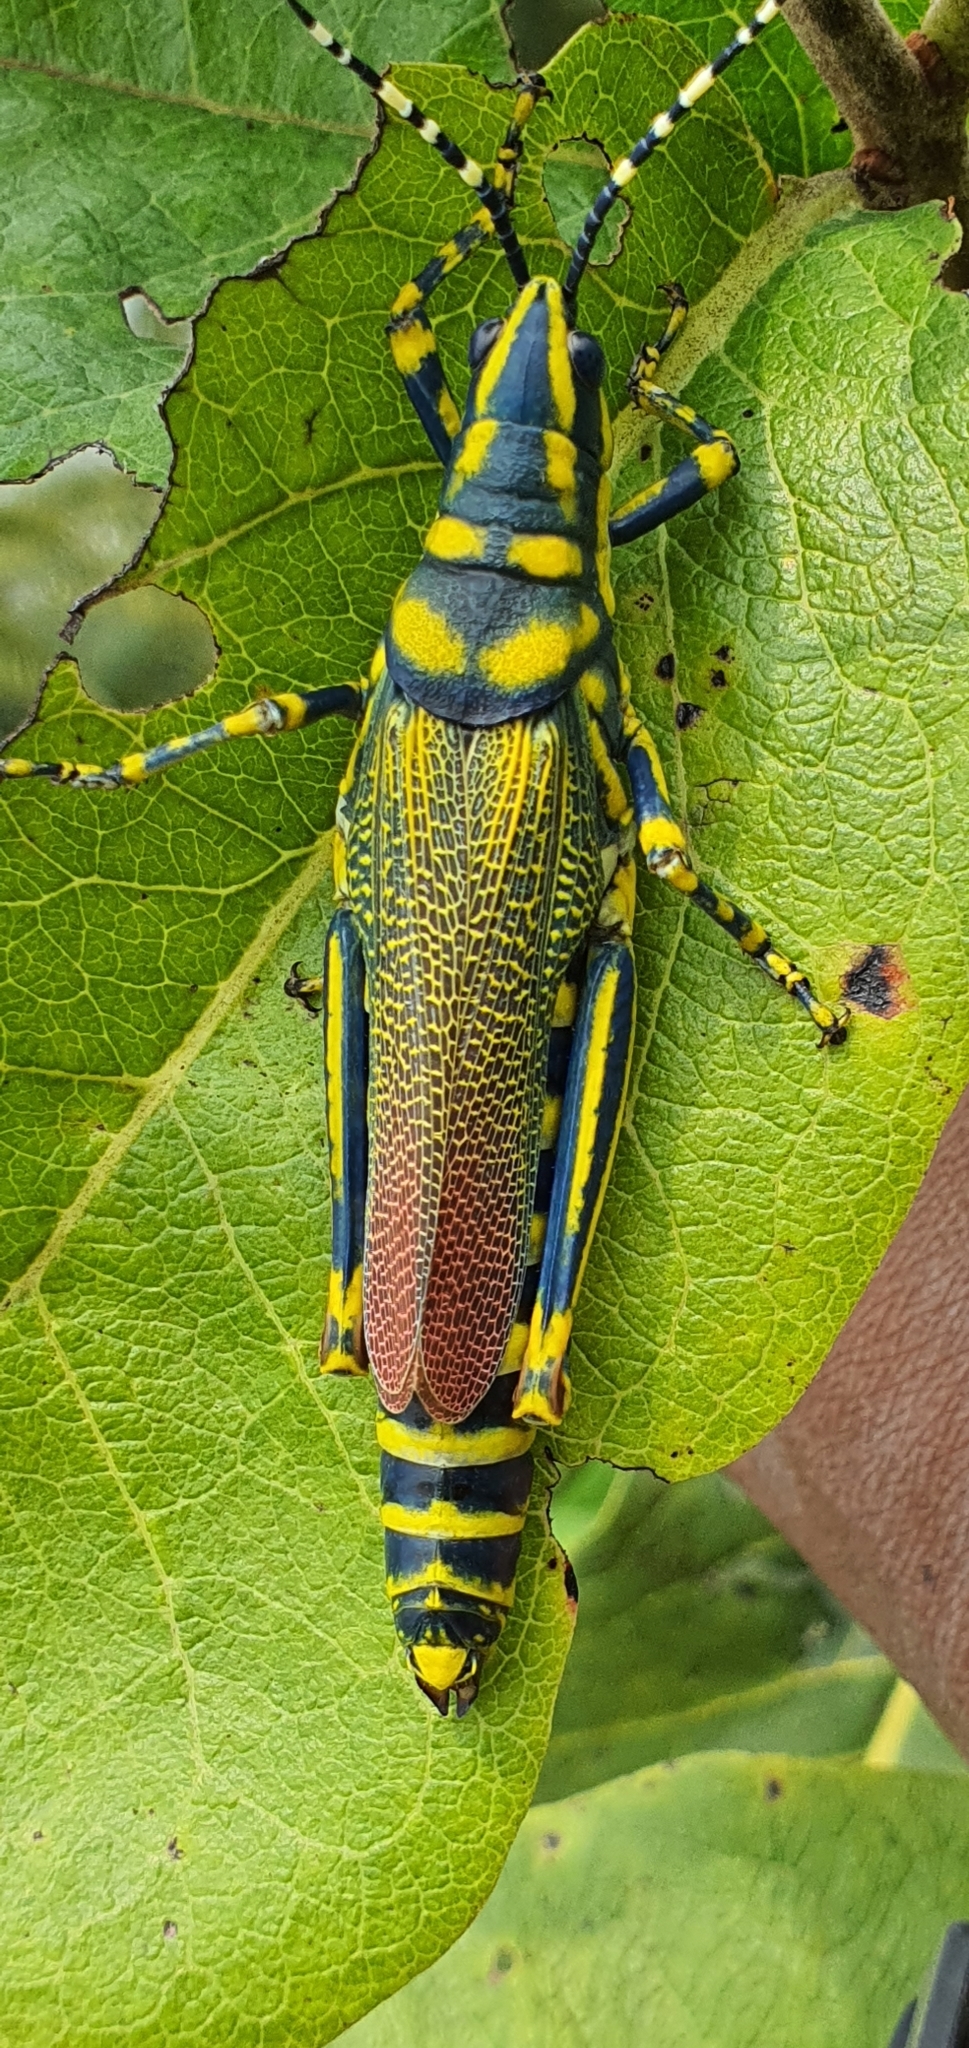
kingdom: Animalia
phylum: Arthropoda
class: Insecta
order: Orthoptera
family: Pyrgomorphidae
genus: Poekilocerus
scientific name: Poekilocerus pictus
